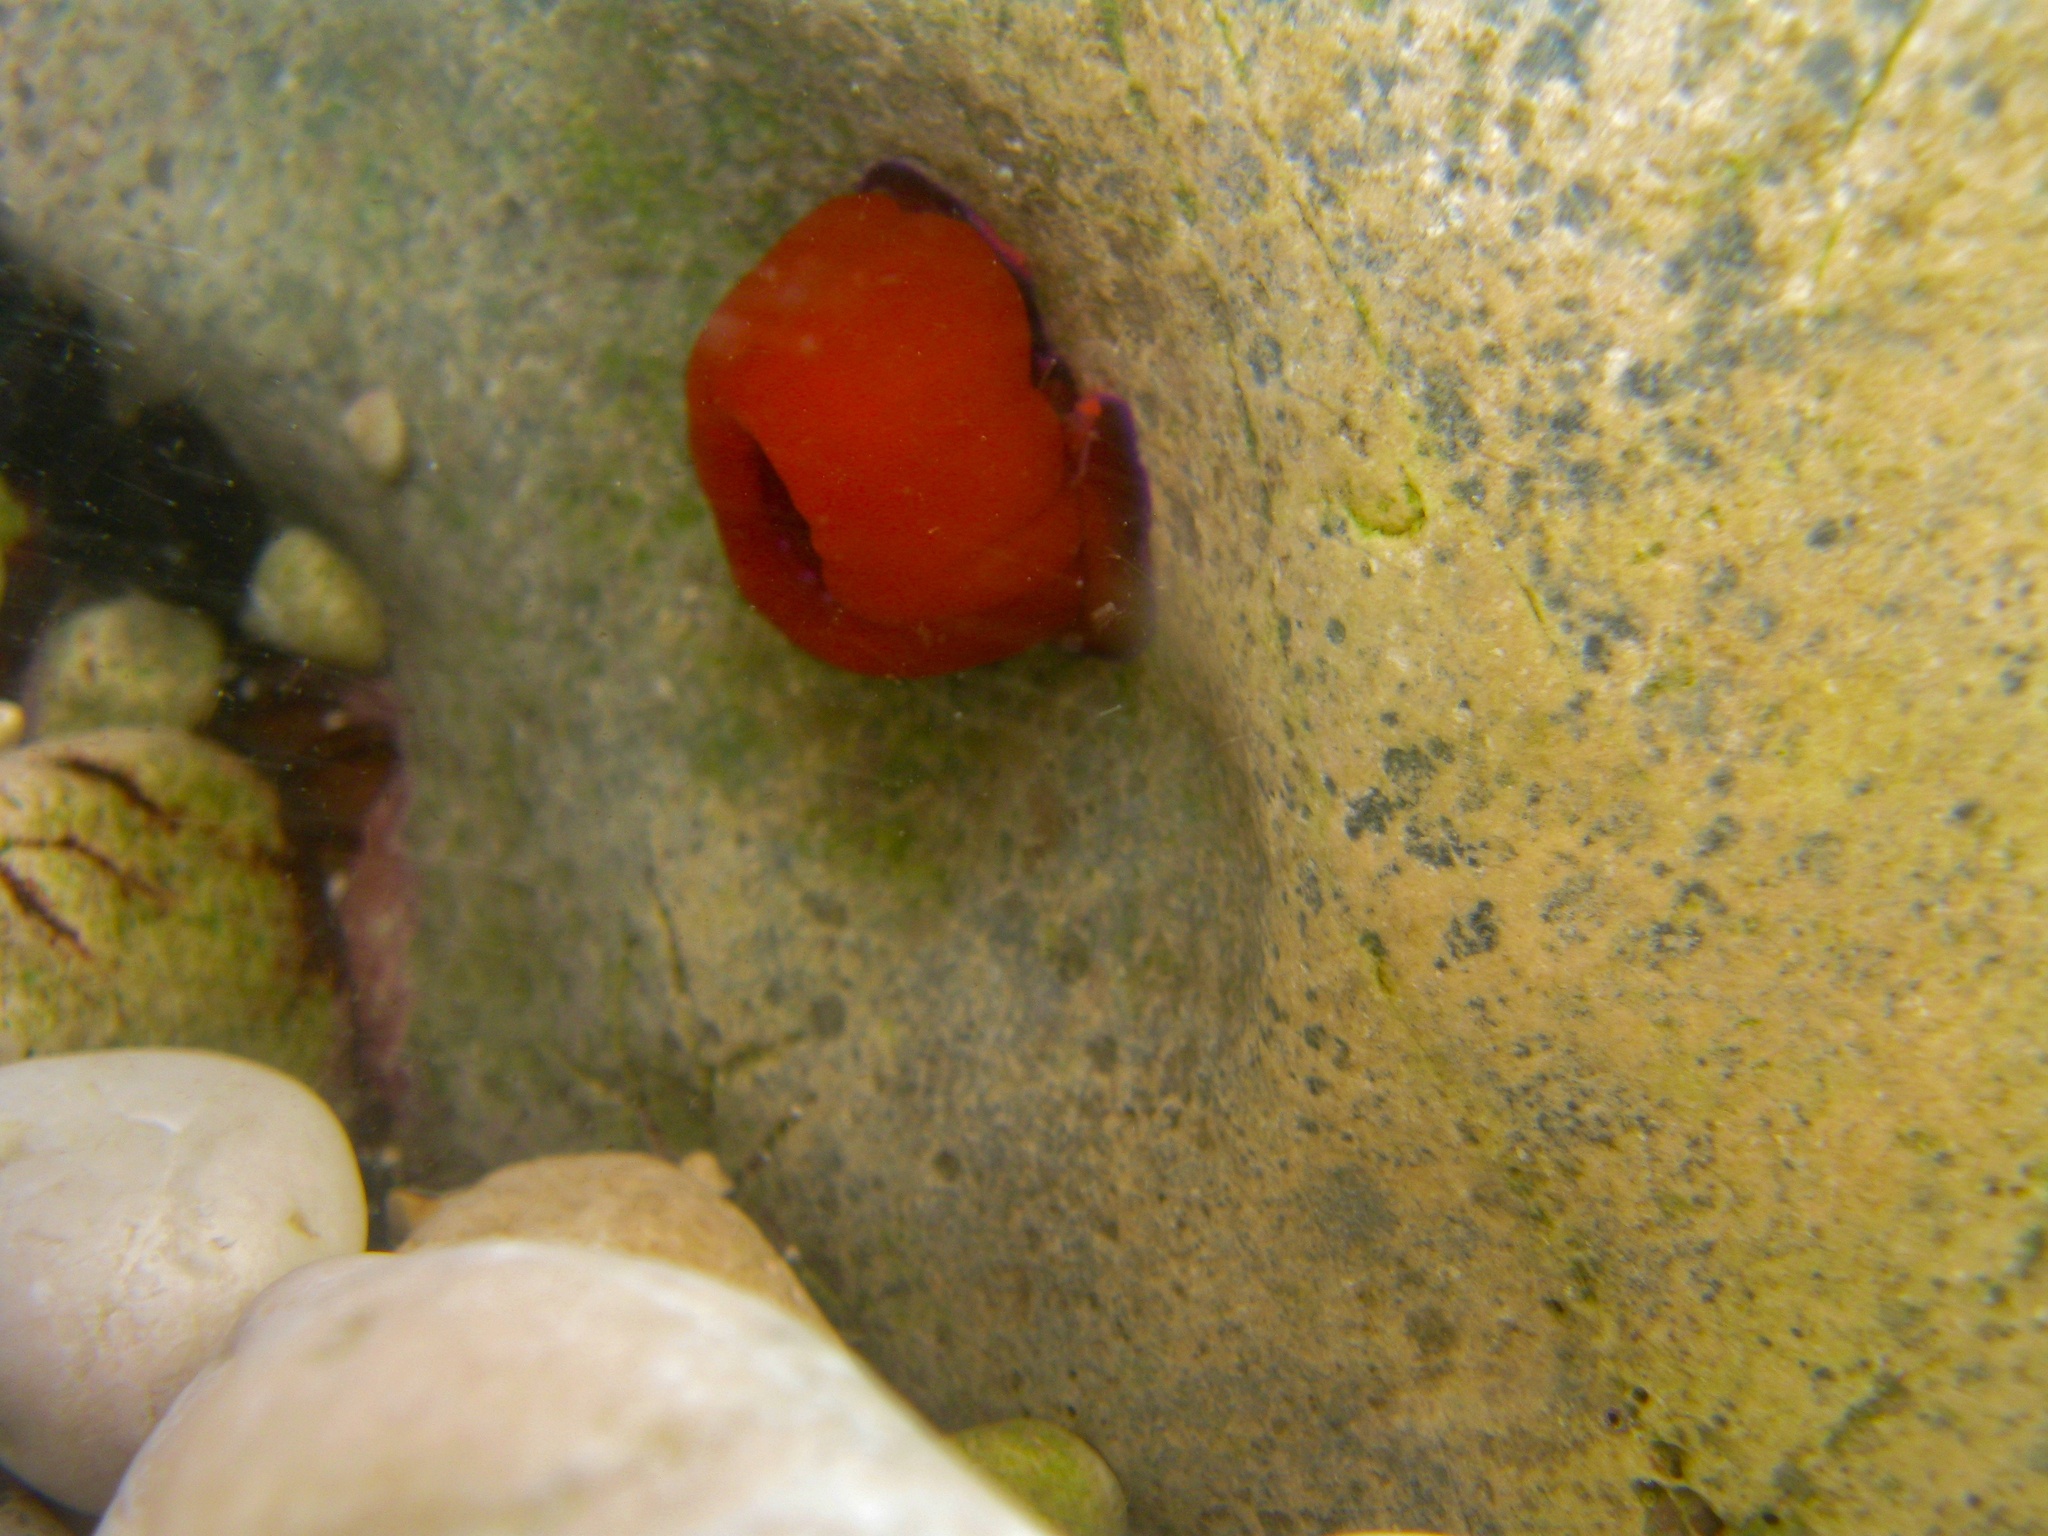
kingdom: Animalia
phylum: Cnidaria
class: Anthozoa
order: Actiniaria
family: Actiniidae
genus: Actinia
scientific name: Actinia mediterranea
